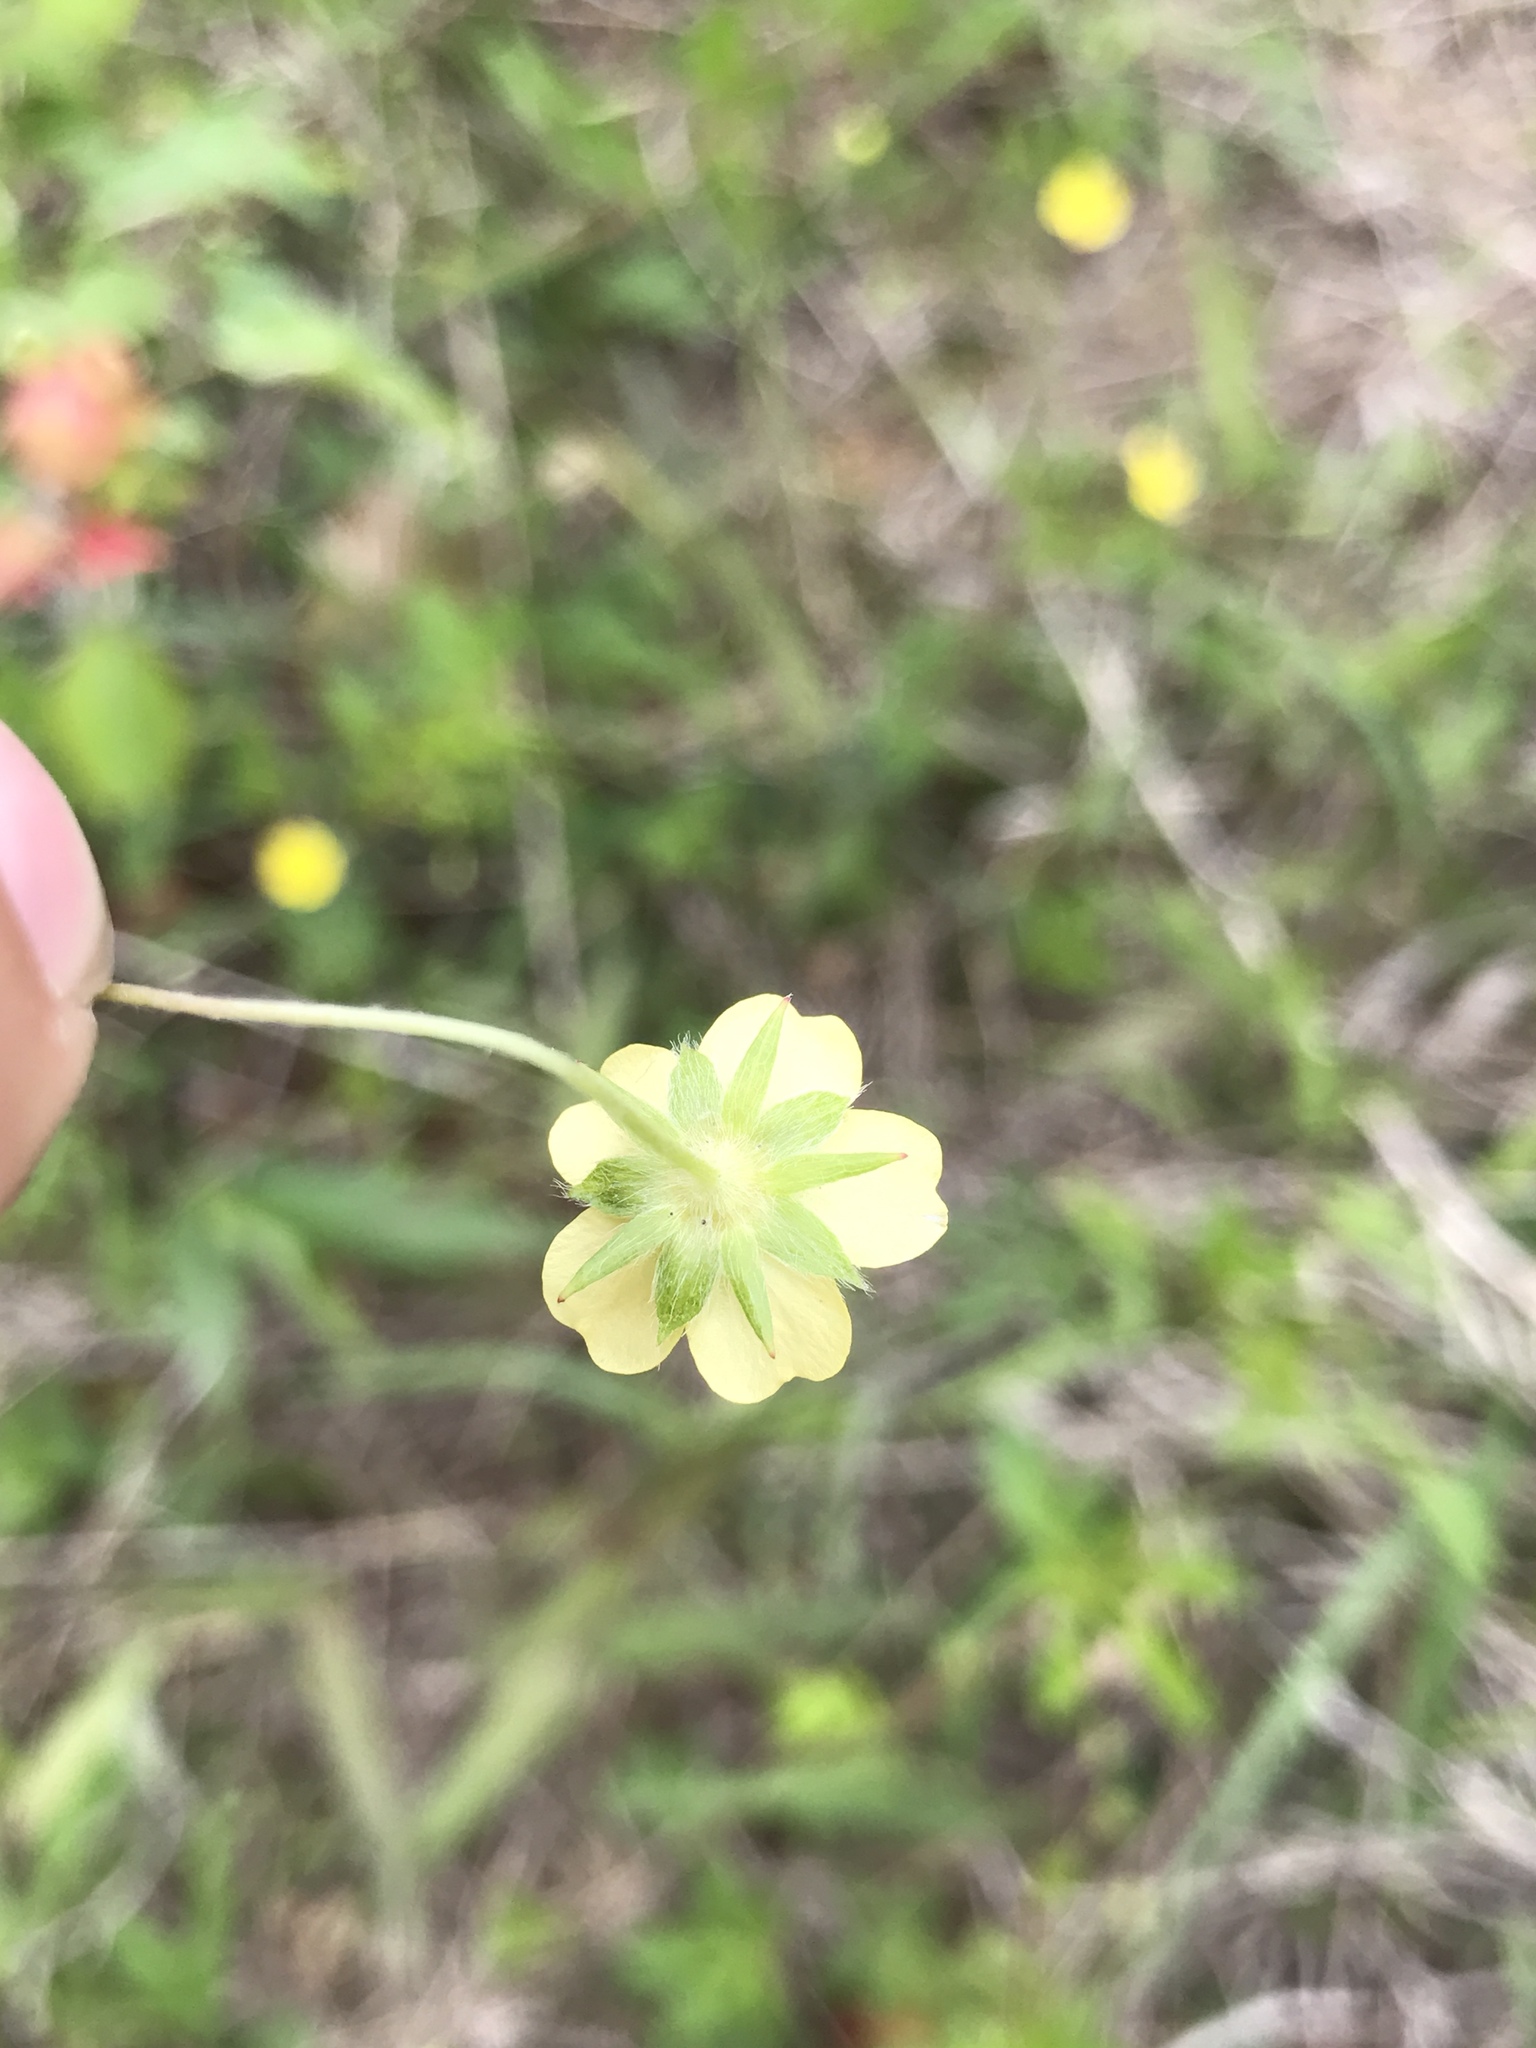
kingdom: Plantae
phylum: Tracheophyta
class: Magnoliopsida
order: Rosales
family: Rosaceae
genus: Potentilla
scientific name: Potentilla simplex
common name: Old field cinquefoil
